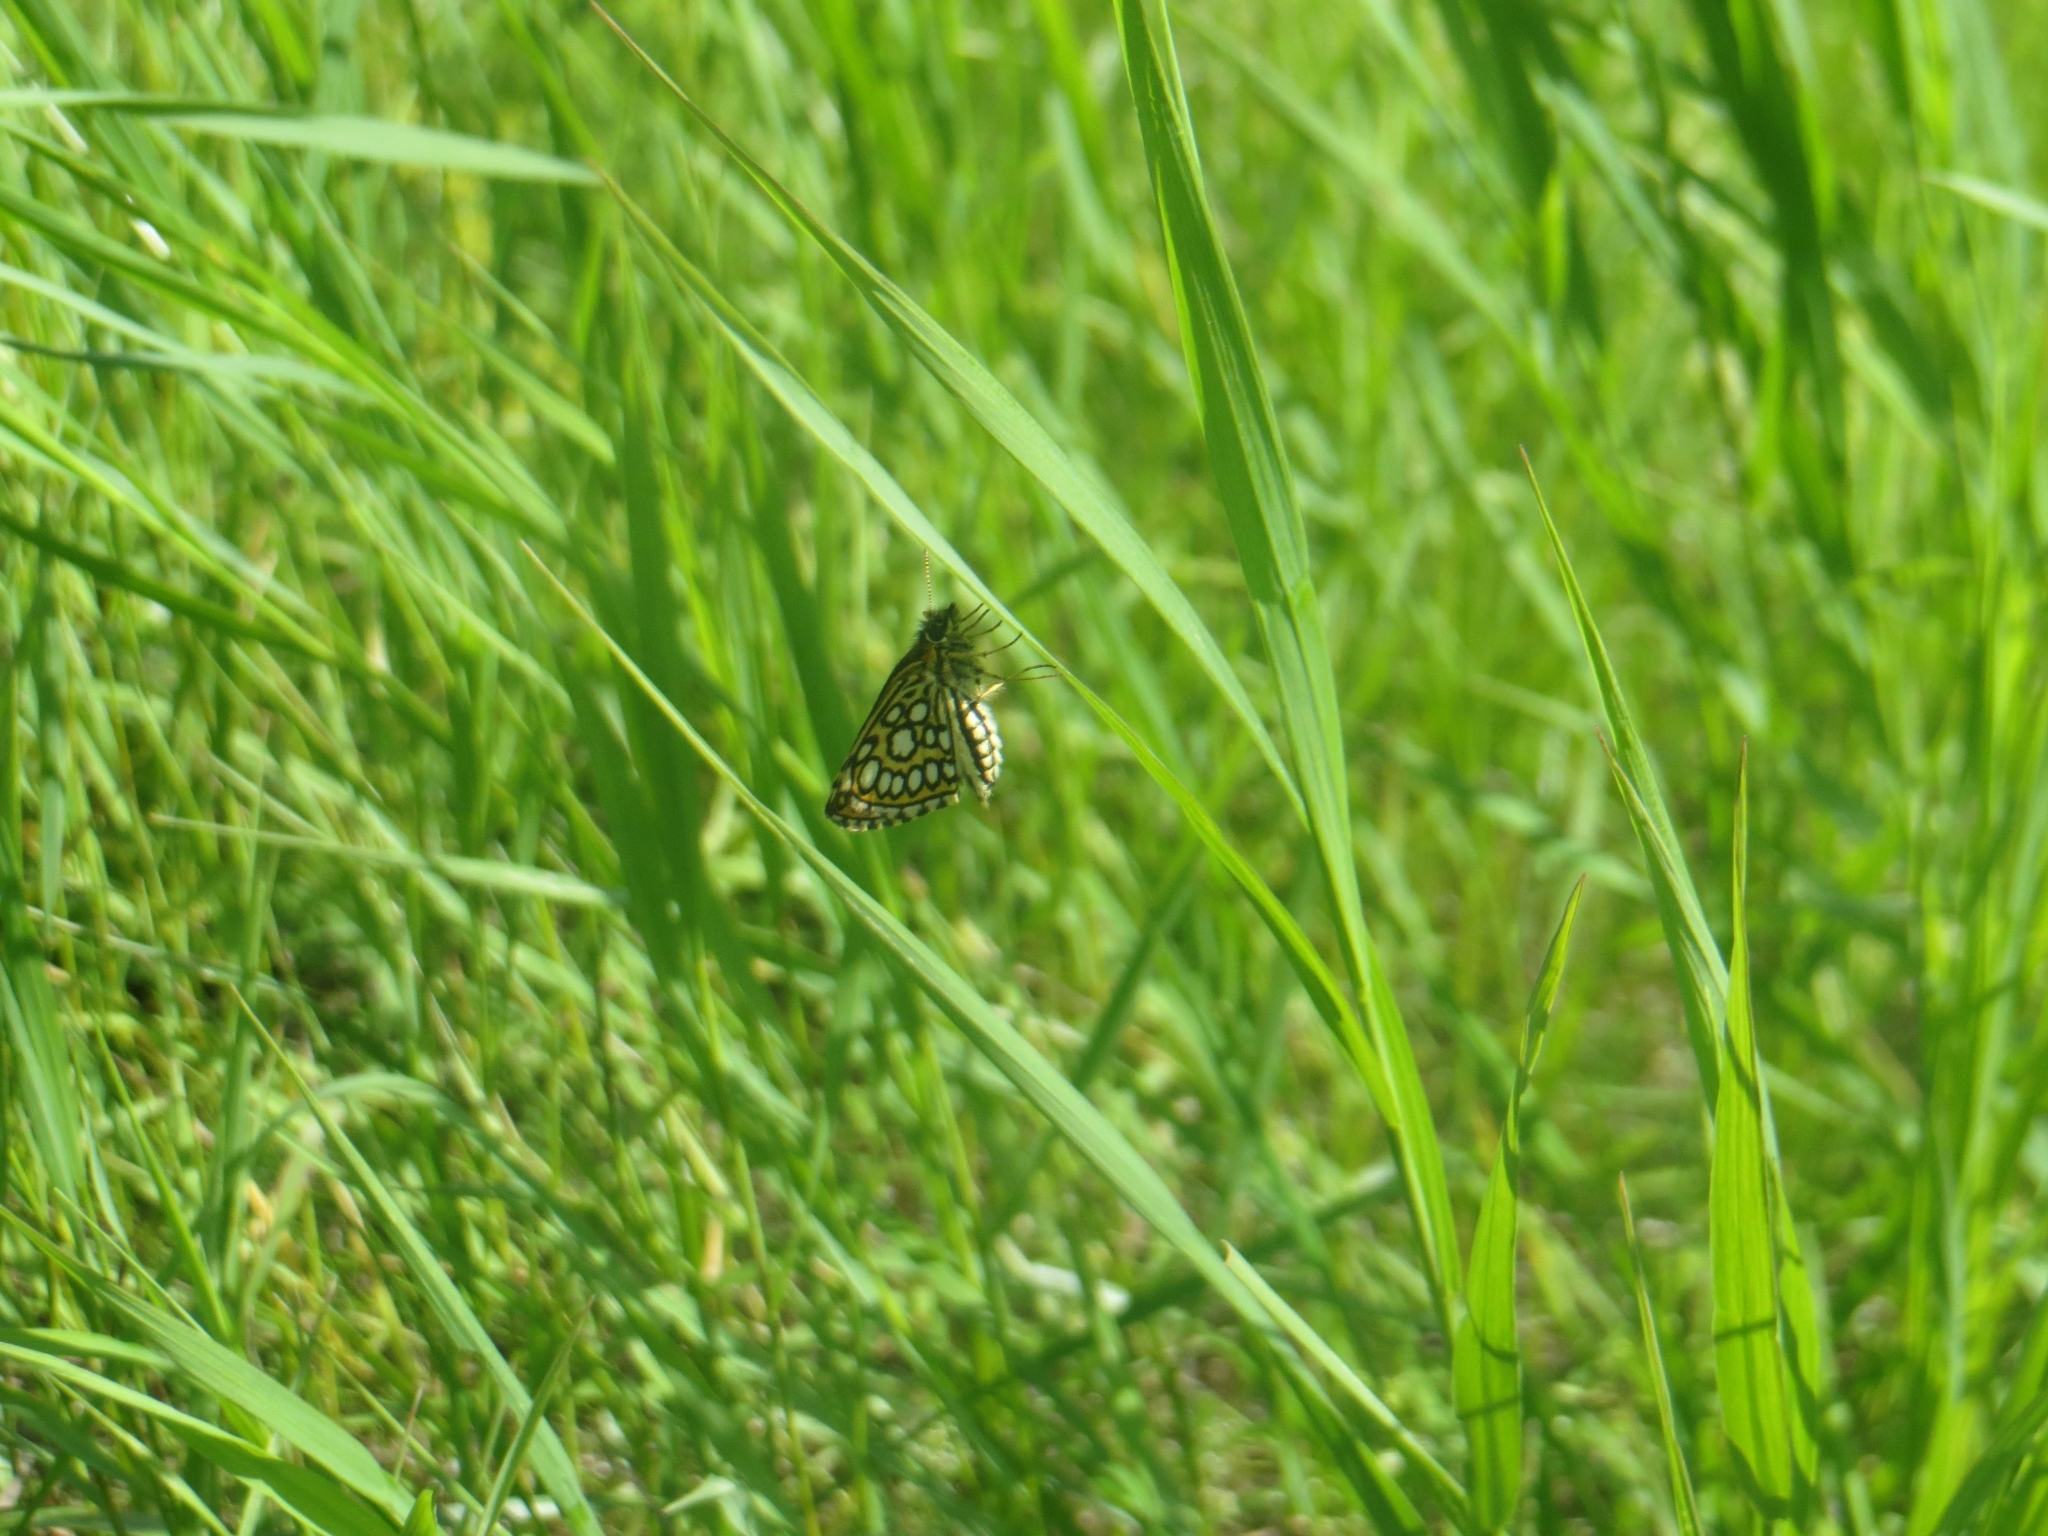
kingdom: Animalia
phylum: Arthropoda
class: Insecta
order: Lepidoptera
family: Hesperiidae
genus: Heteropterus
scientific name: Heteropterus morpheus
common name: Large chequered skipper
